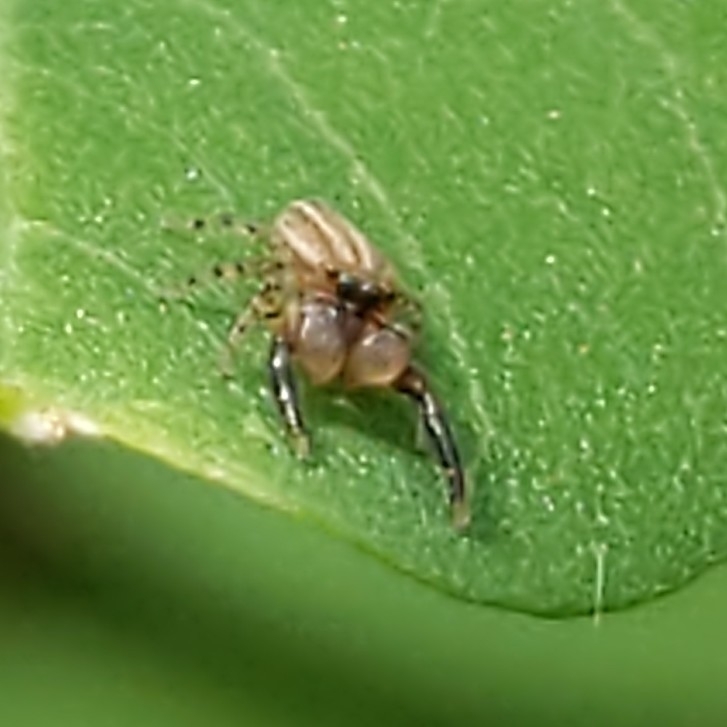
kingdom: Animalia
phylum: Arthropoda
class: Arachnida
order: Araneae
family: Salticidae
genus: Marpissa
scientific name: Marpissa lineata
